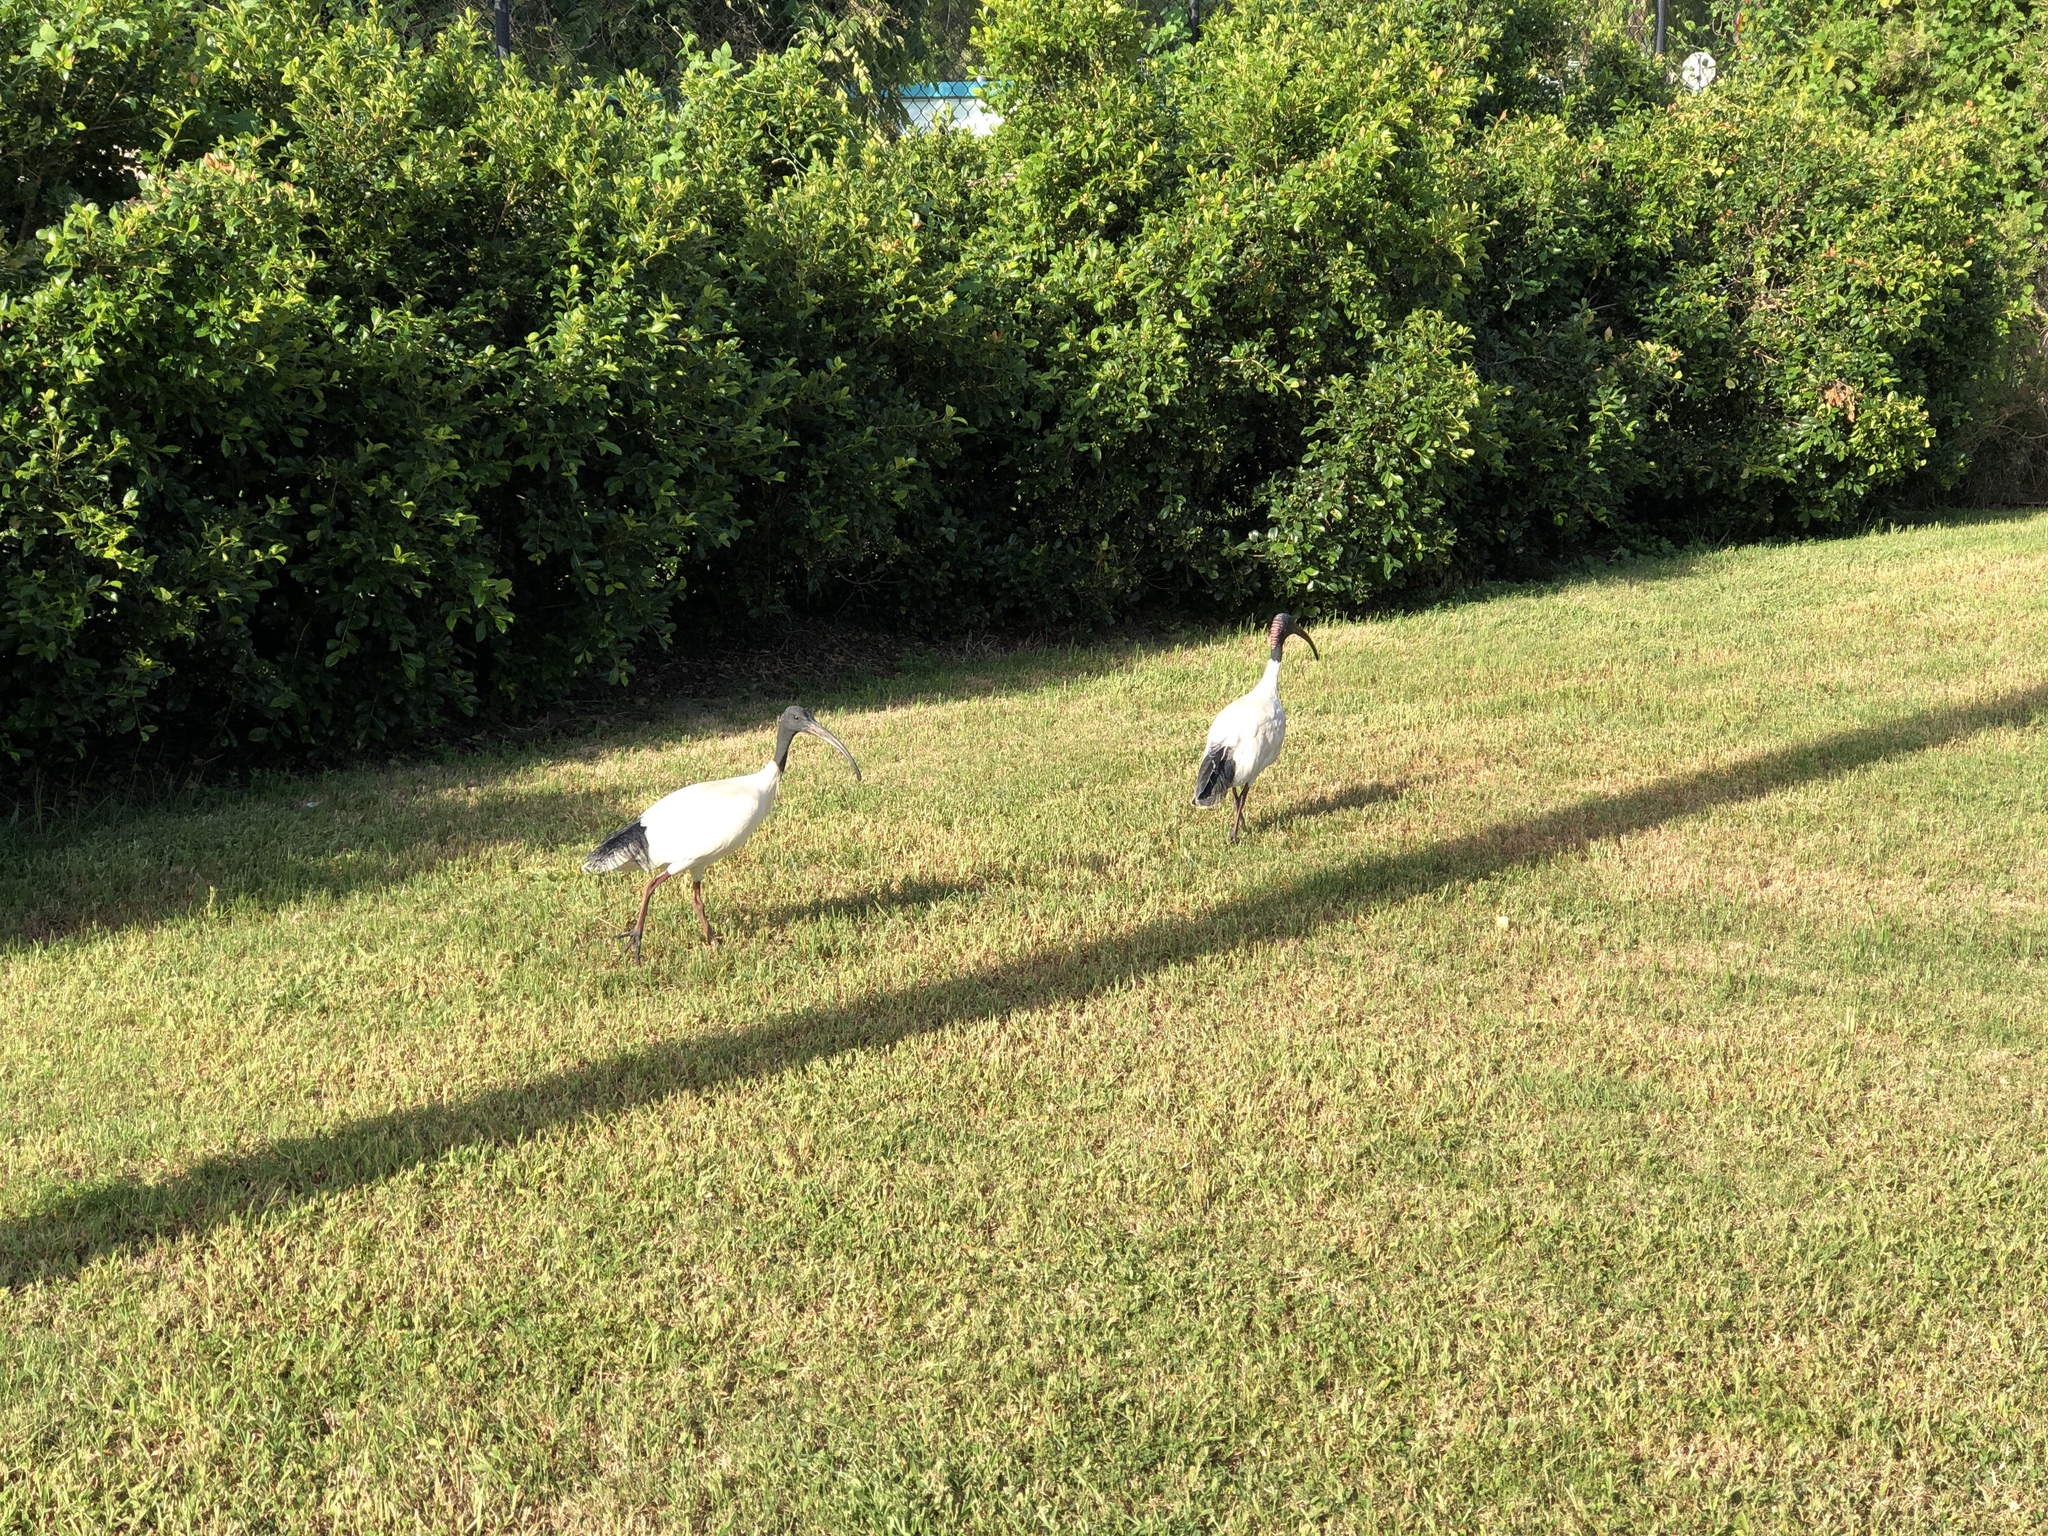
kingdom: Animalia
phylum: Chordata
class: Aves
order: Pelecaniformes
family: Threskiornithidae
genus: Threskiornis
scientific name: Threskiornis molucca
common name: Australian white ibis
